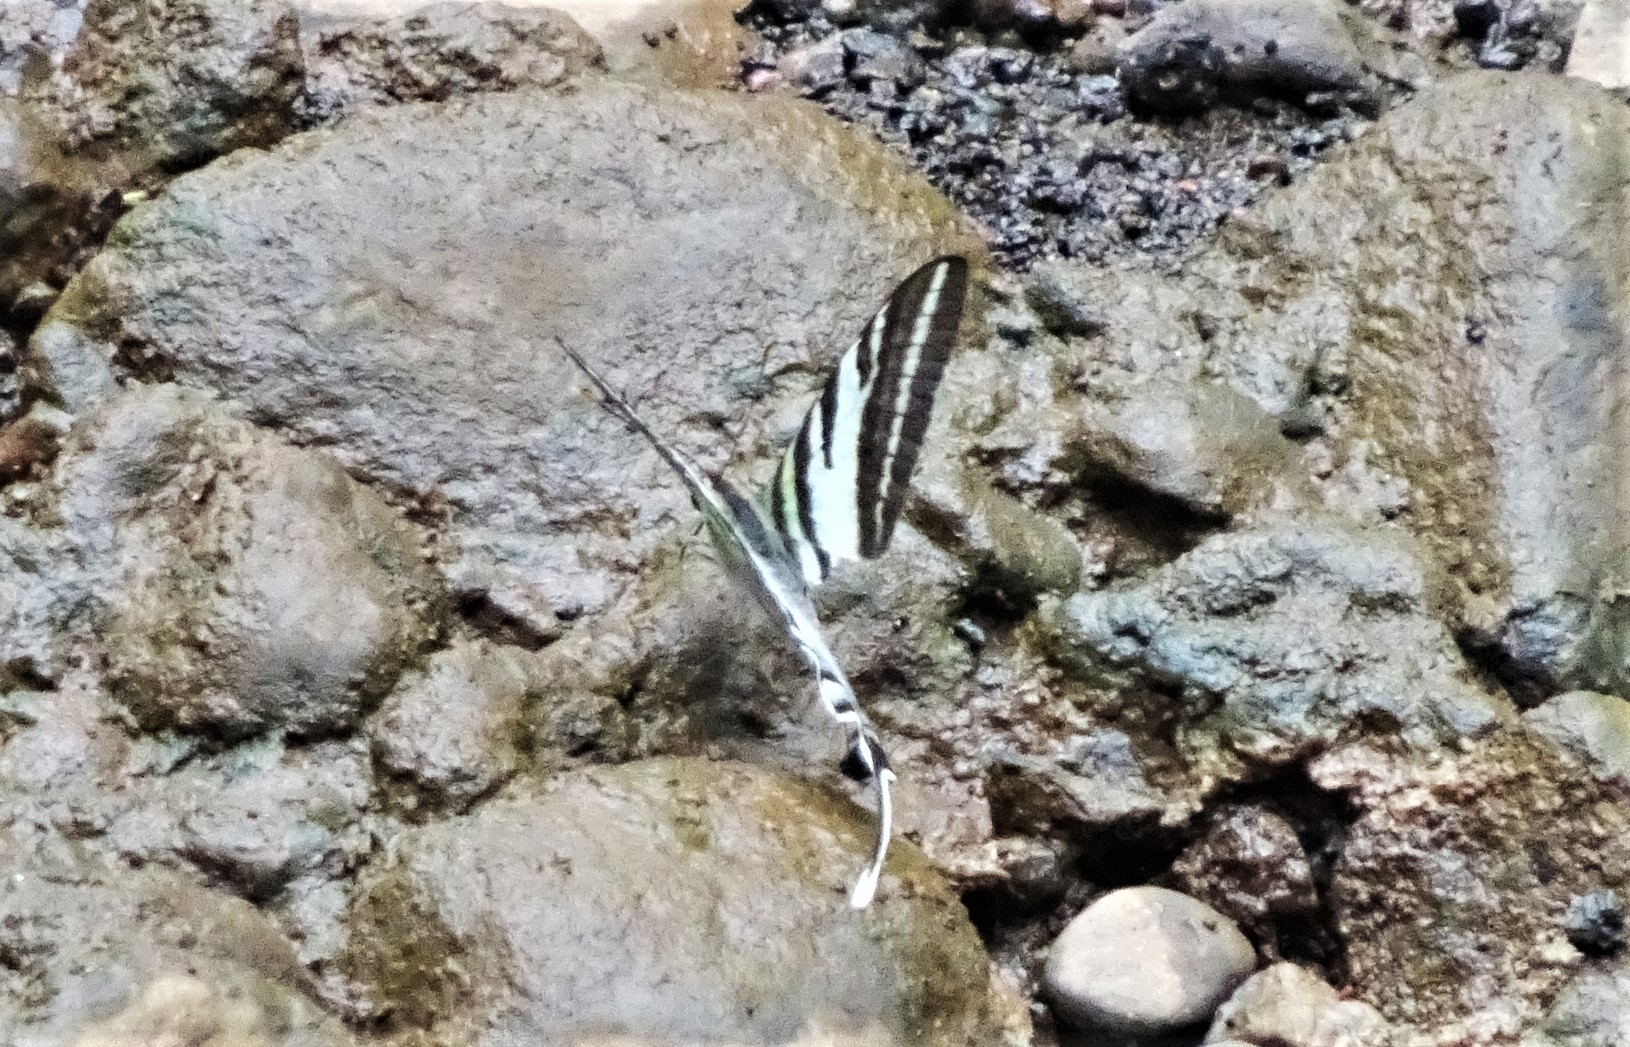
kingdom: Animalia
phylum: Arthropoda
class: Insecta
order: Lepidoptera
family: Papilionidae
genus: Protographium
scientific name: Protographium leosthenes
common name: Four-bar swordtail
